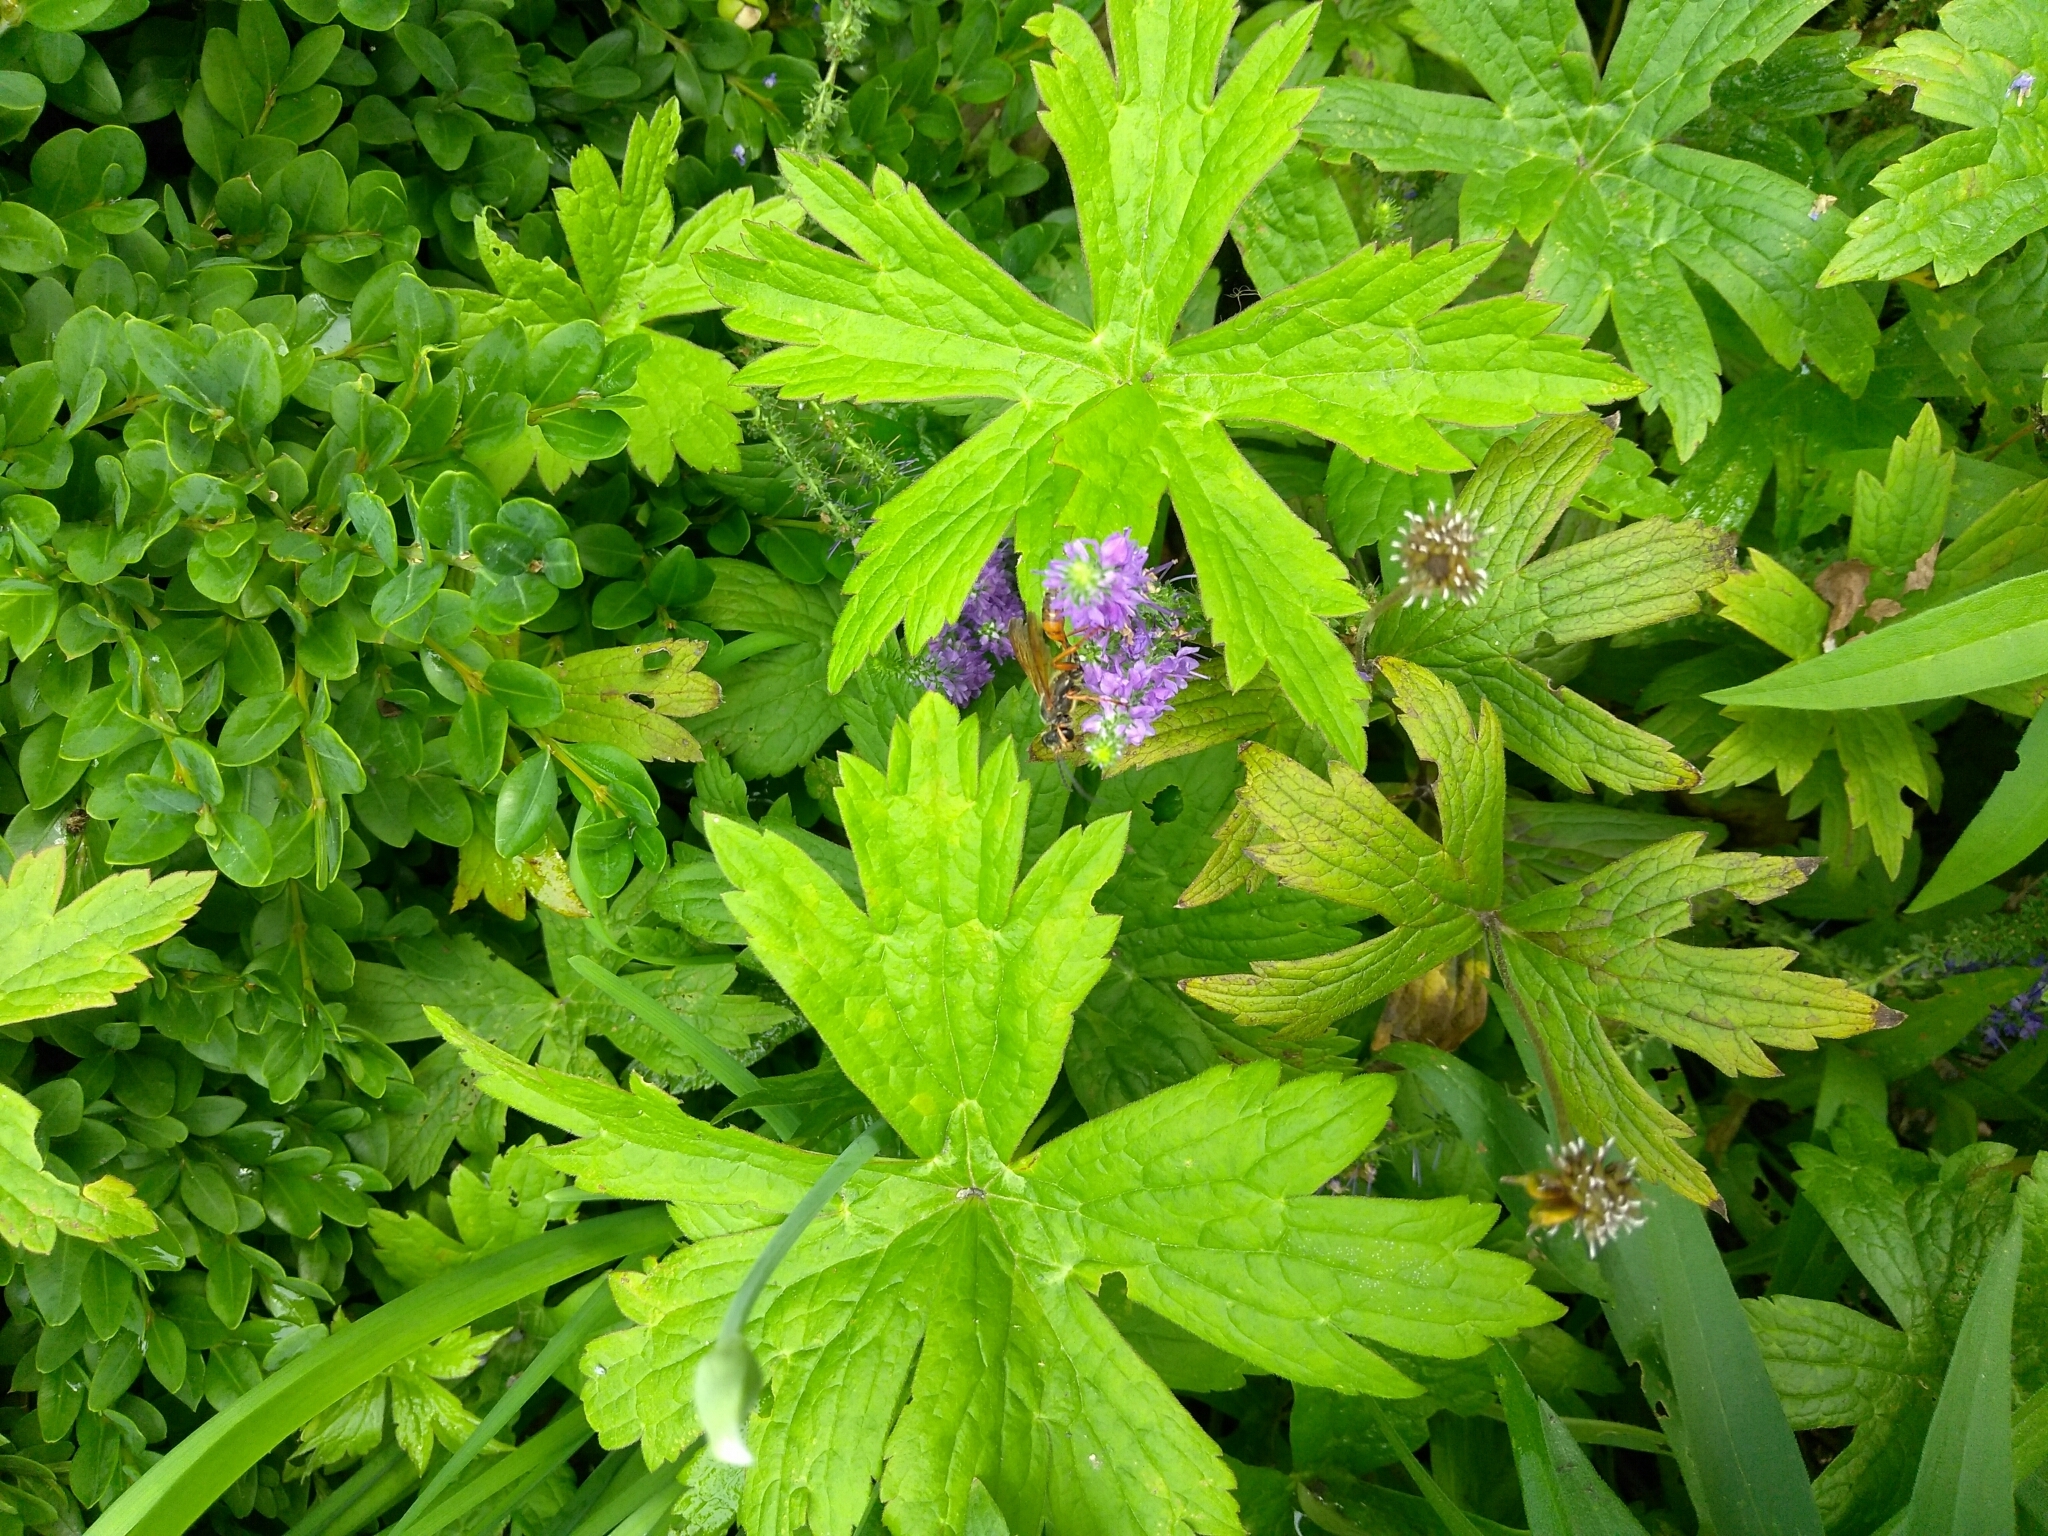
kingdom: Animalia
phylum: Arthropoda
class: Insecta
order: Hymenoptera
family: Sphecidae
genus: Sphex
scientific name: Sphex ichneumoneus
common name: Great golden digger wasp
